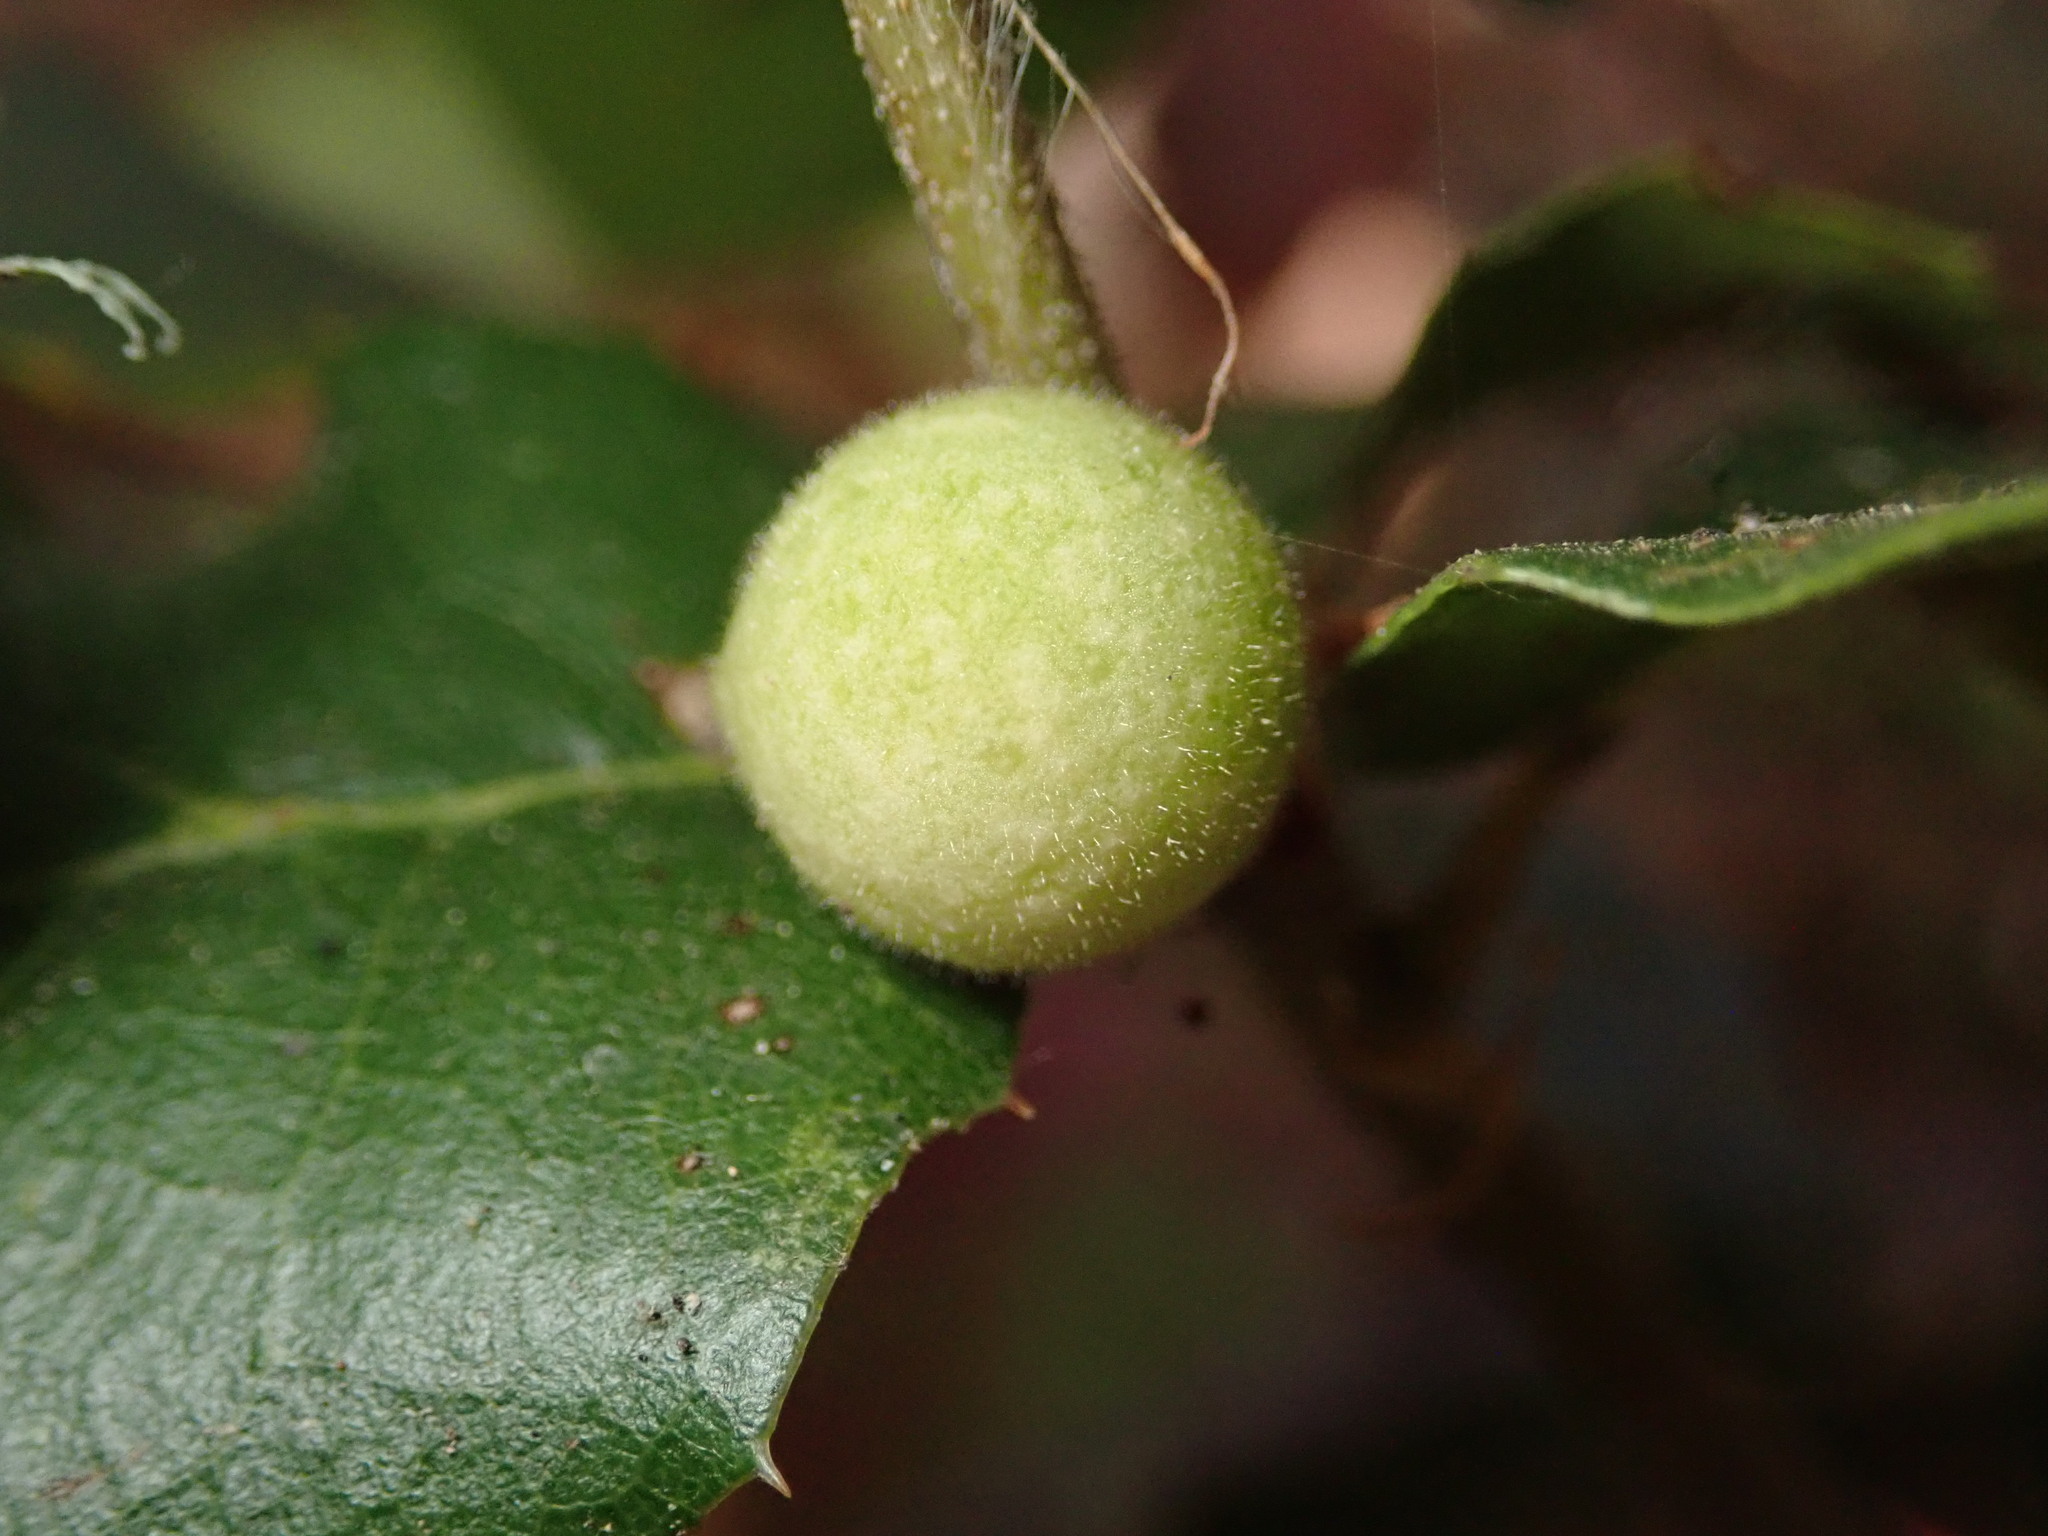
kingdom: Animalia
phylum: Arthropoda
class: Insecta
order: Hymenoptera
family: Cynipidae
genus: Callirhytis
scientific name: Callirhytis
